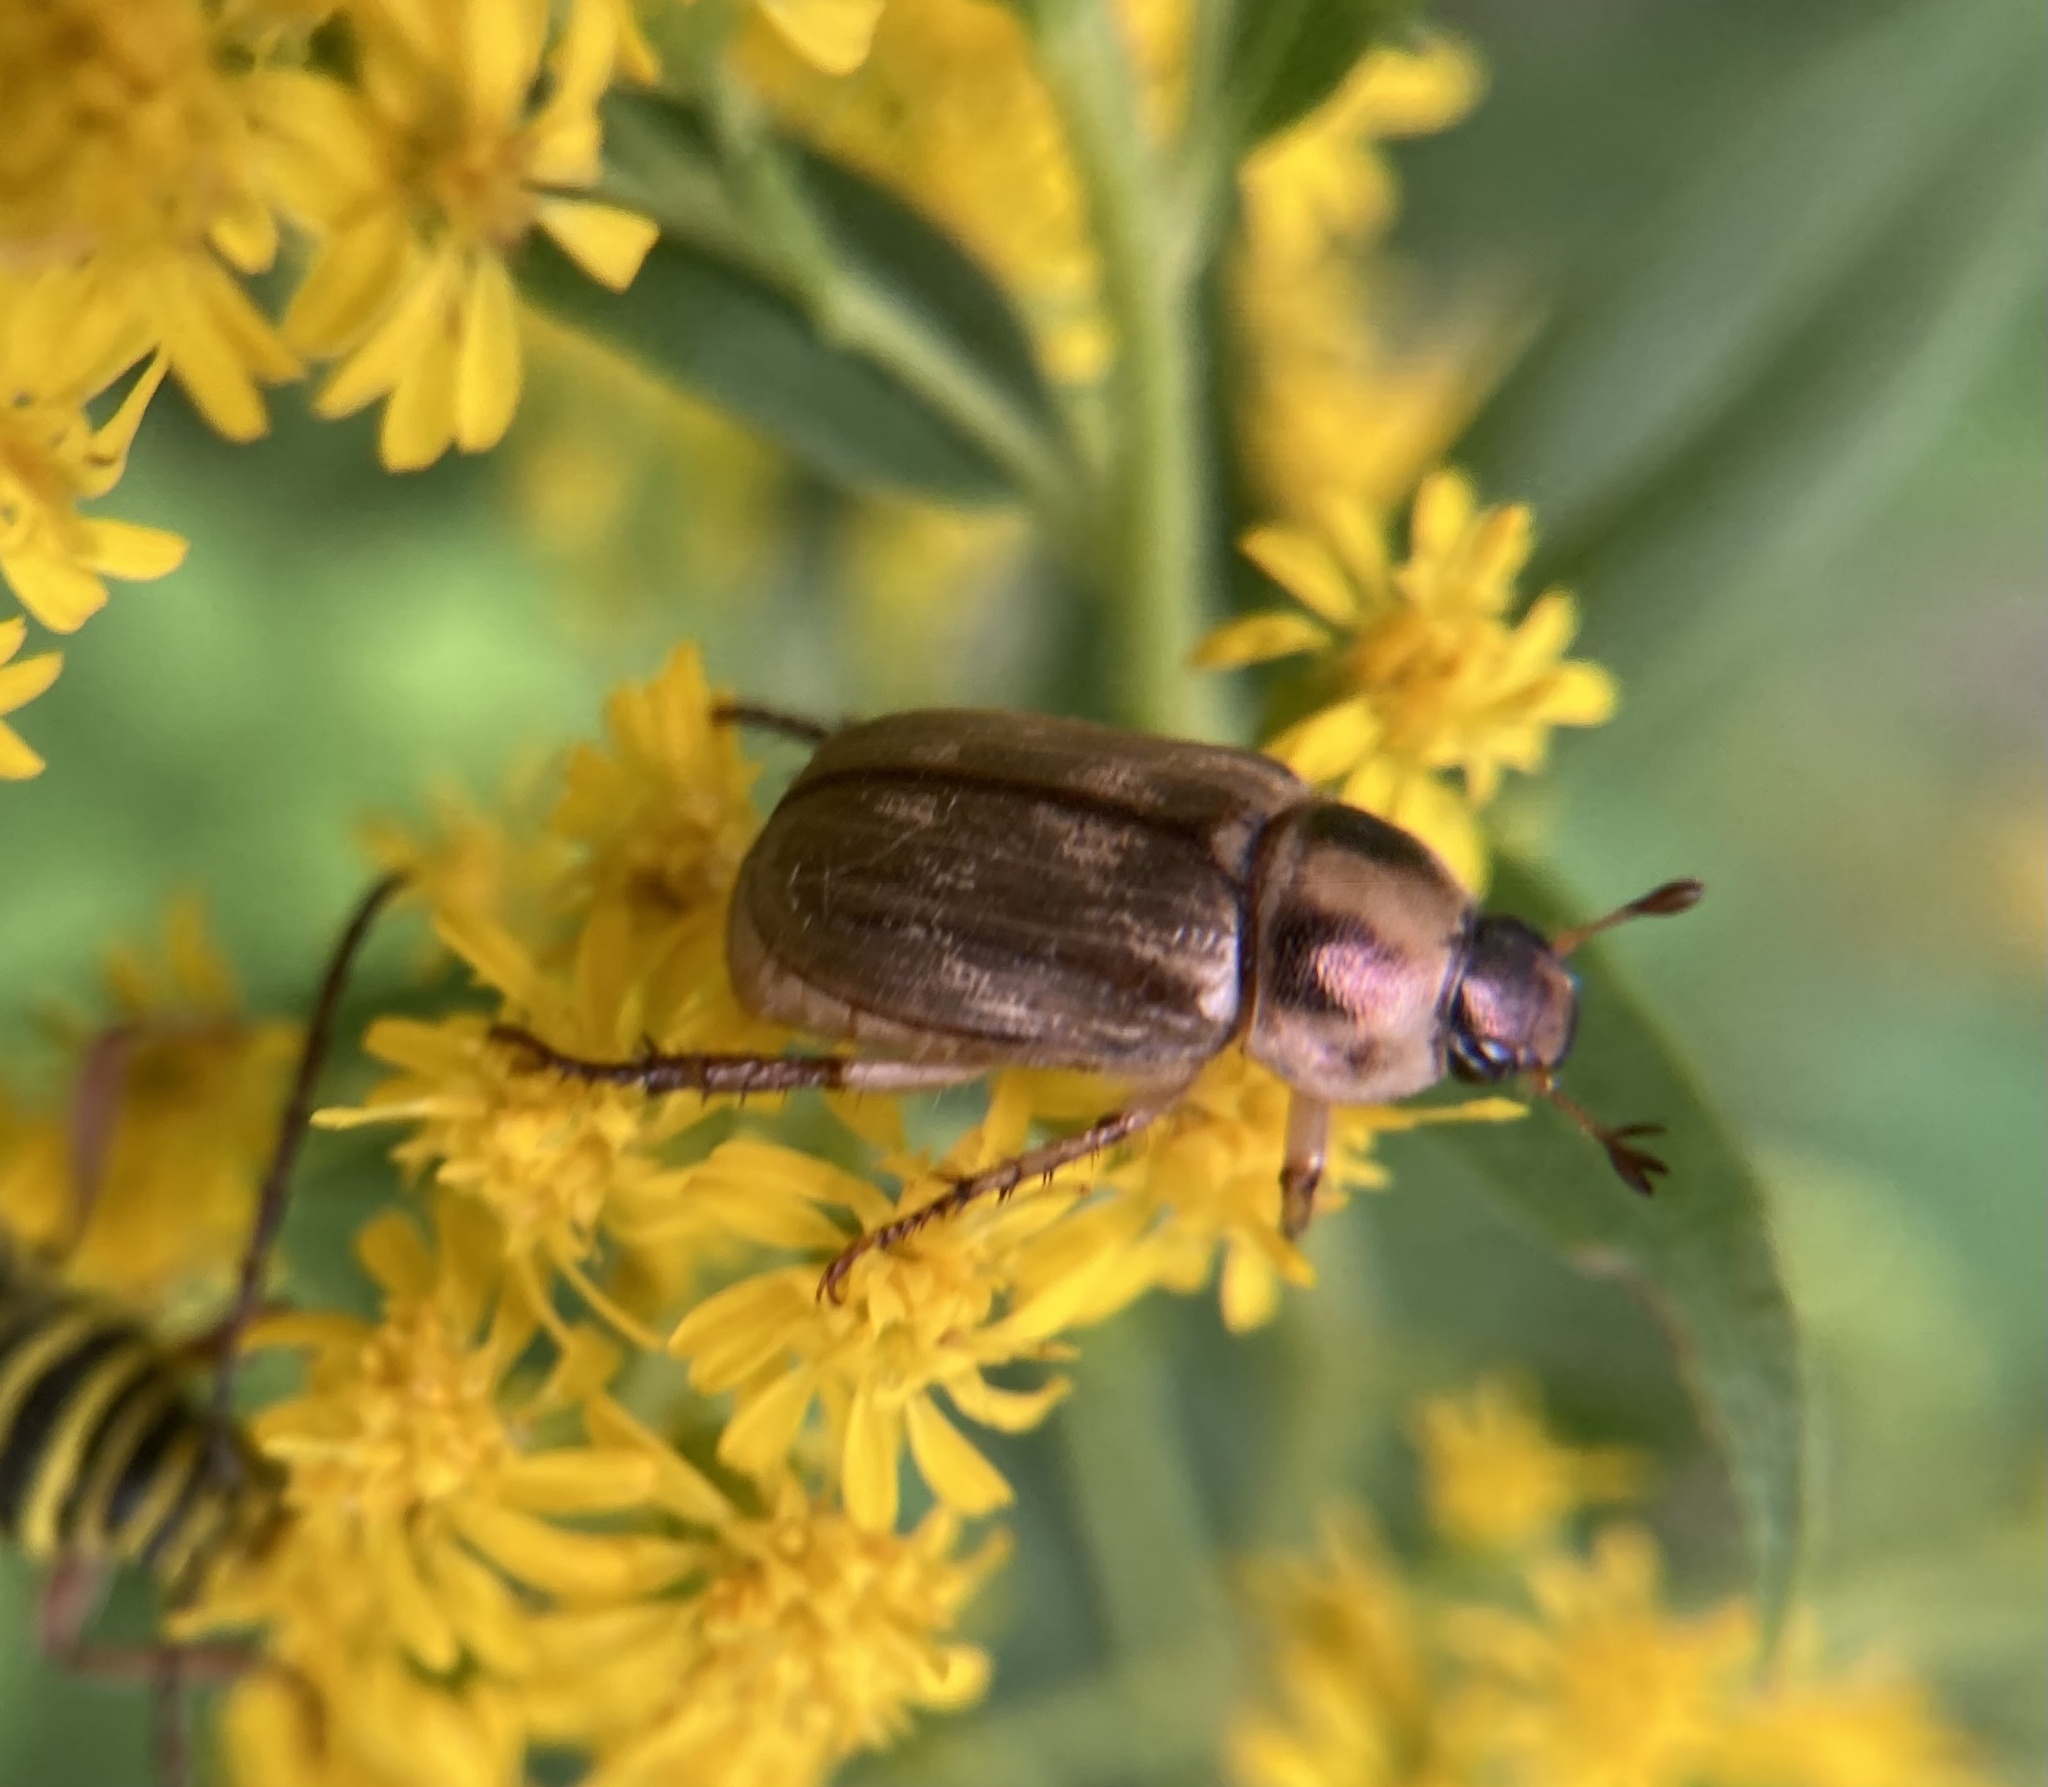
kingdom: Animalia
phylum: Arthropoda
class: Insecta
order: Coleoptera
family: Scarabaeidae
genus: Exomala
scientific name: Exomala orientalis
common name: Oriental beetle
